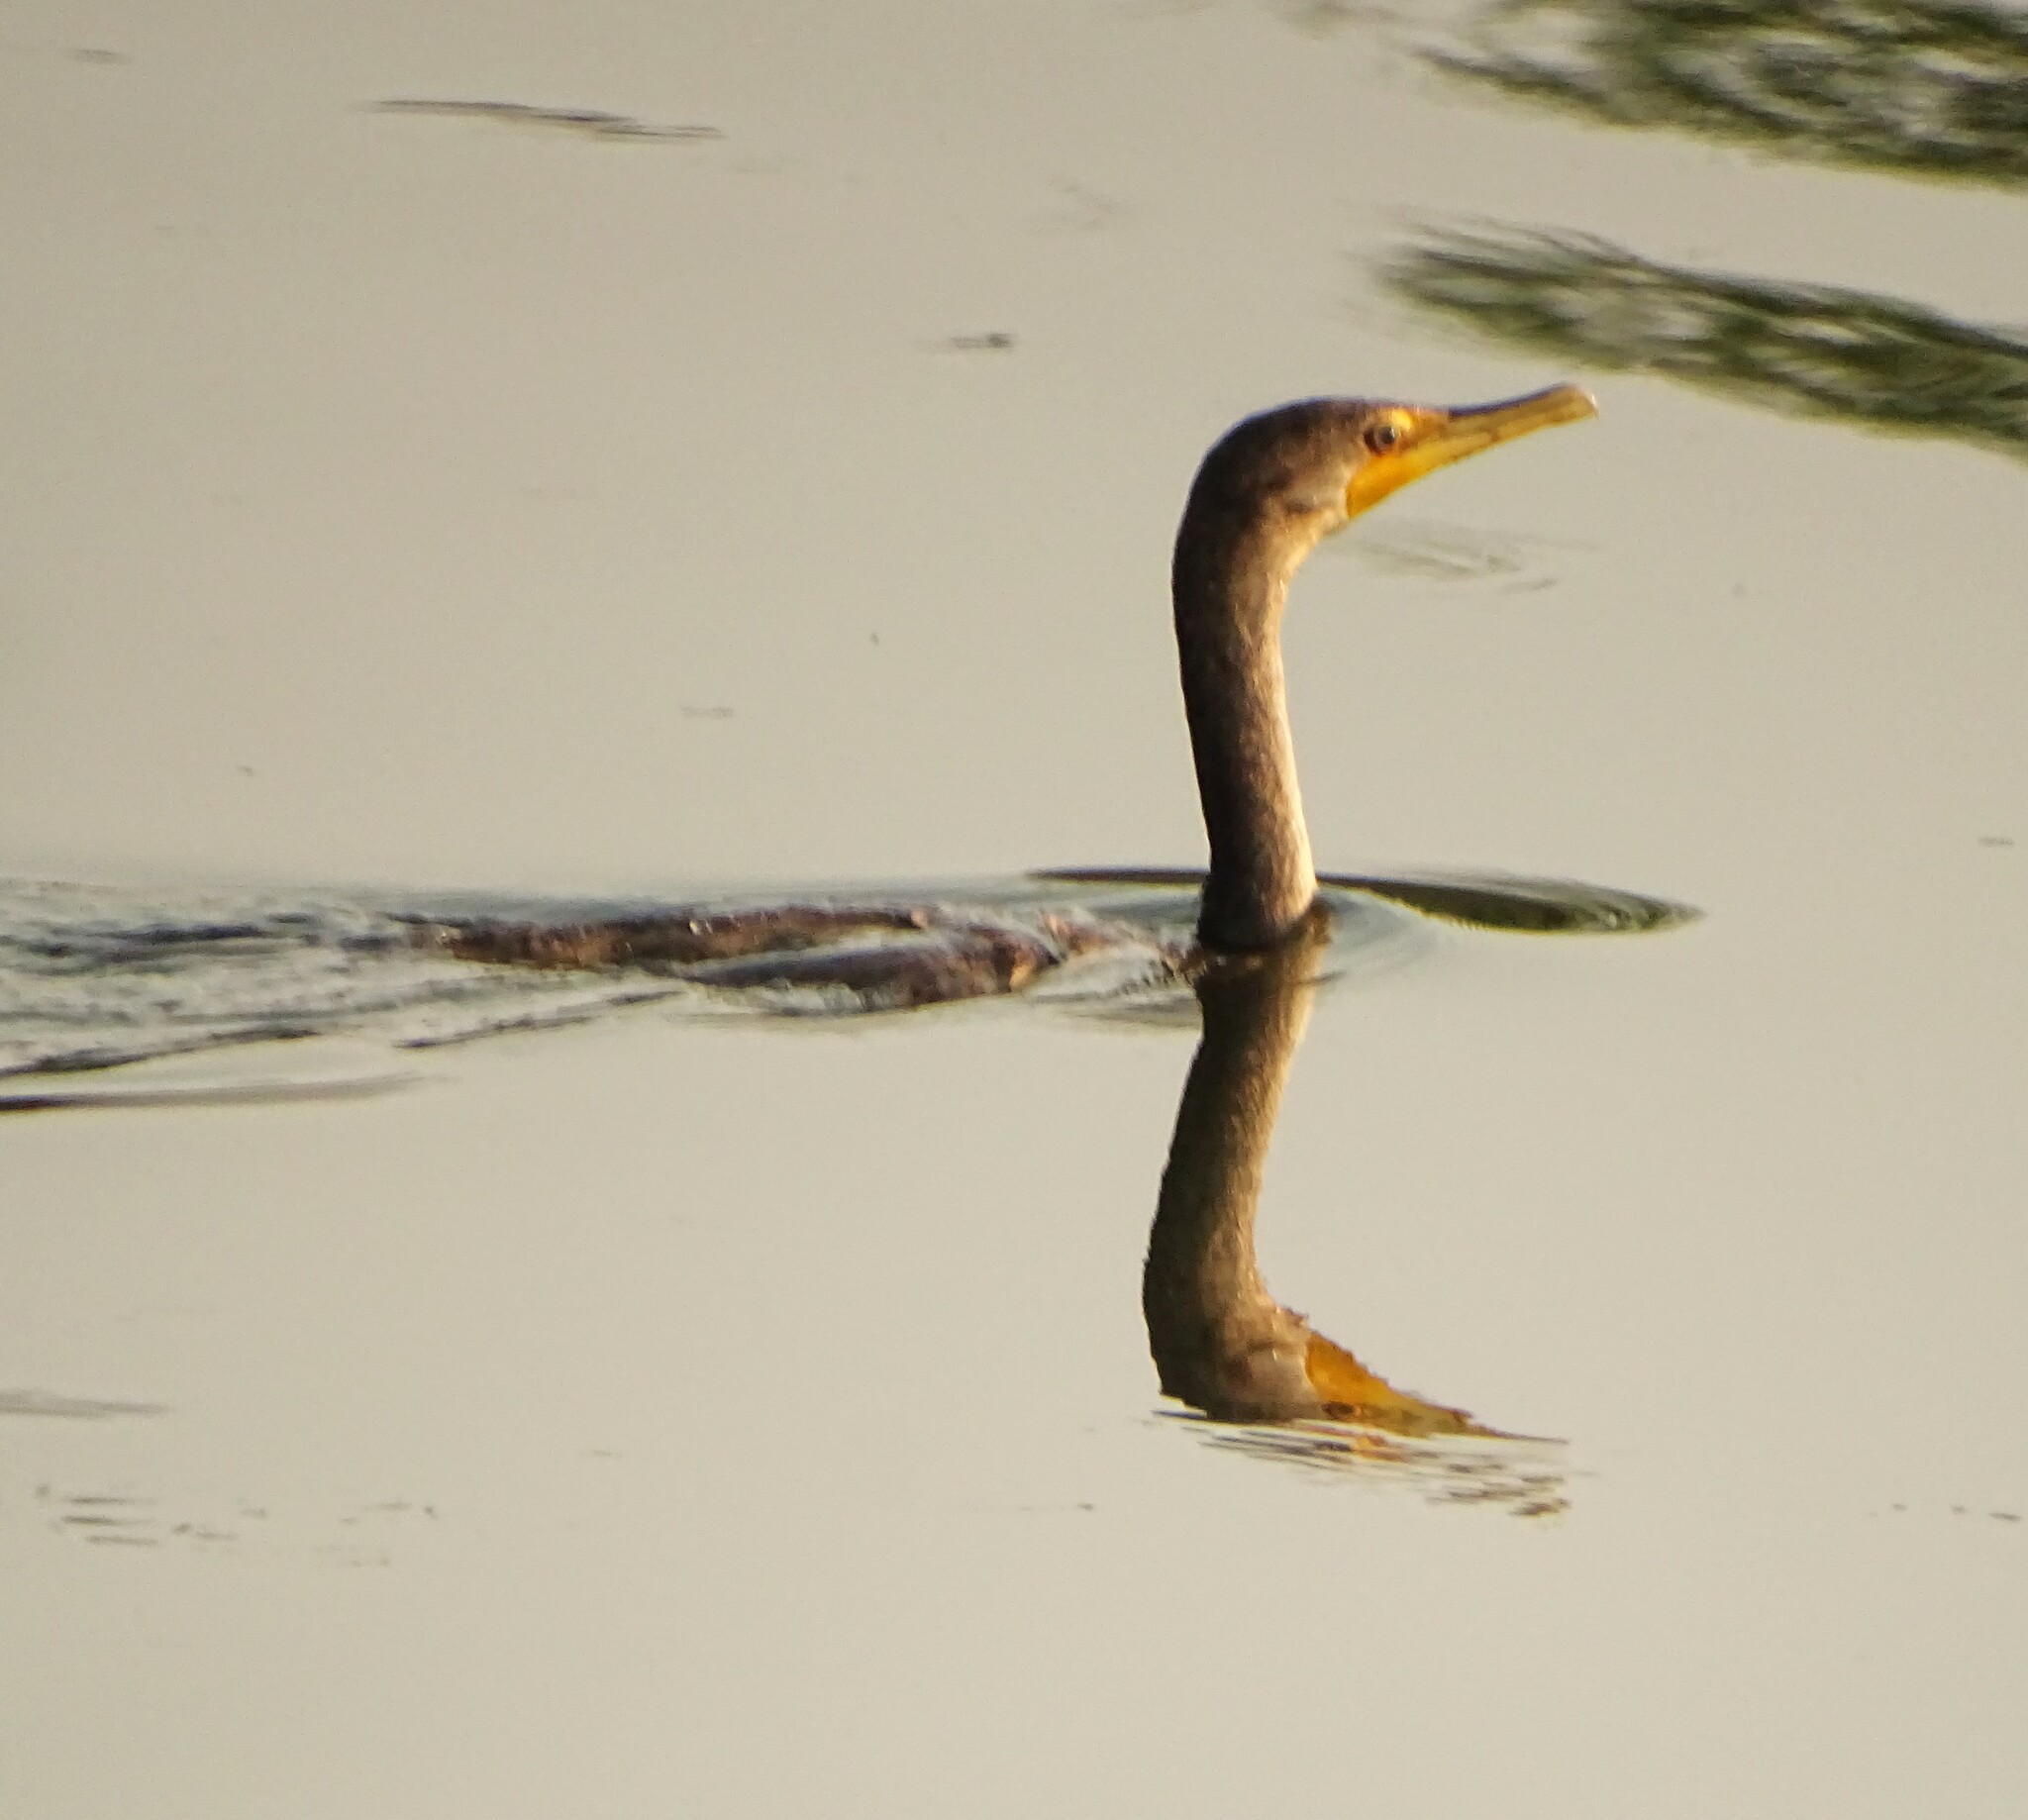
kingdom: Animalia
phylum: Chordata
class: Aves
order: Suliformes
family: Phalacrocoracidae
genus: Phalacrocorax
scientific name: Phalacrocorax auritus
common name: Double-crested cormorant
